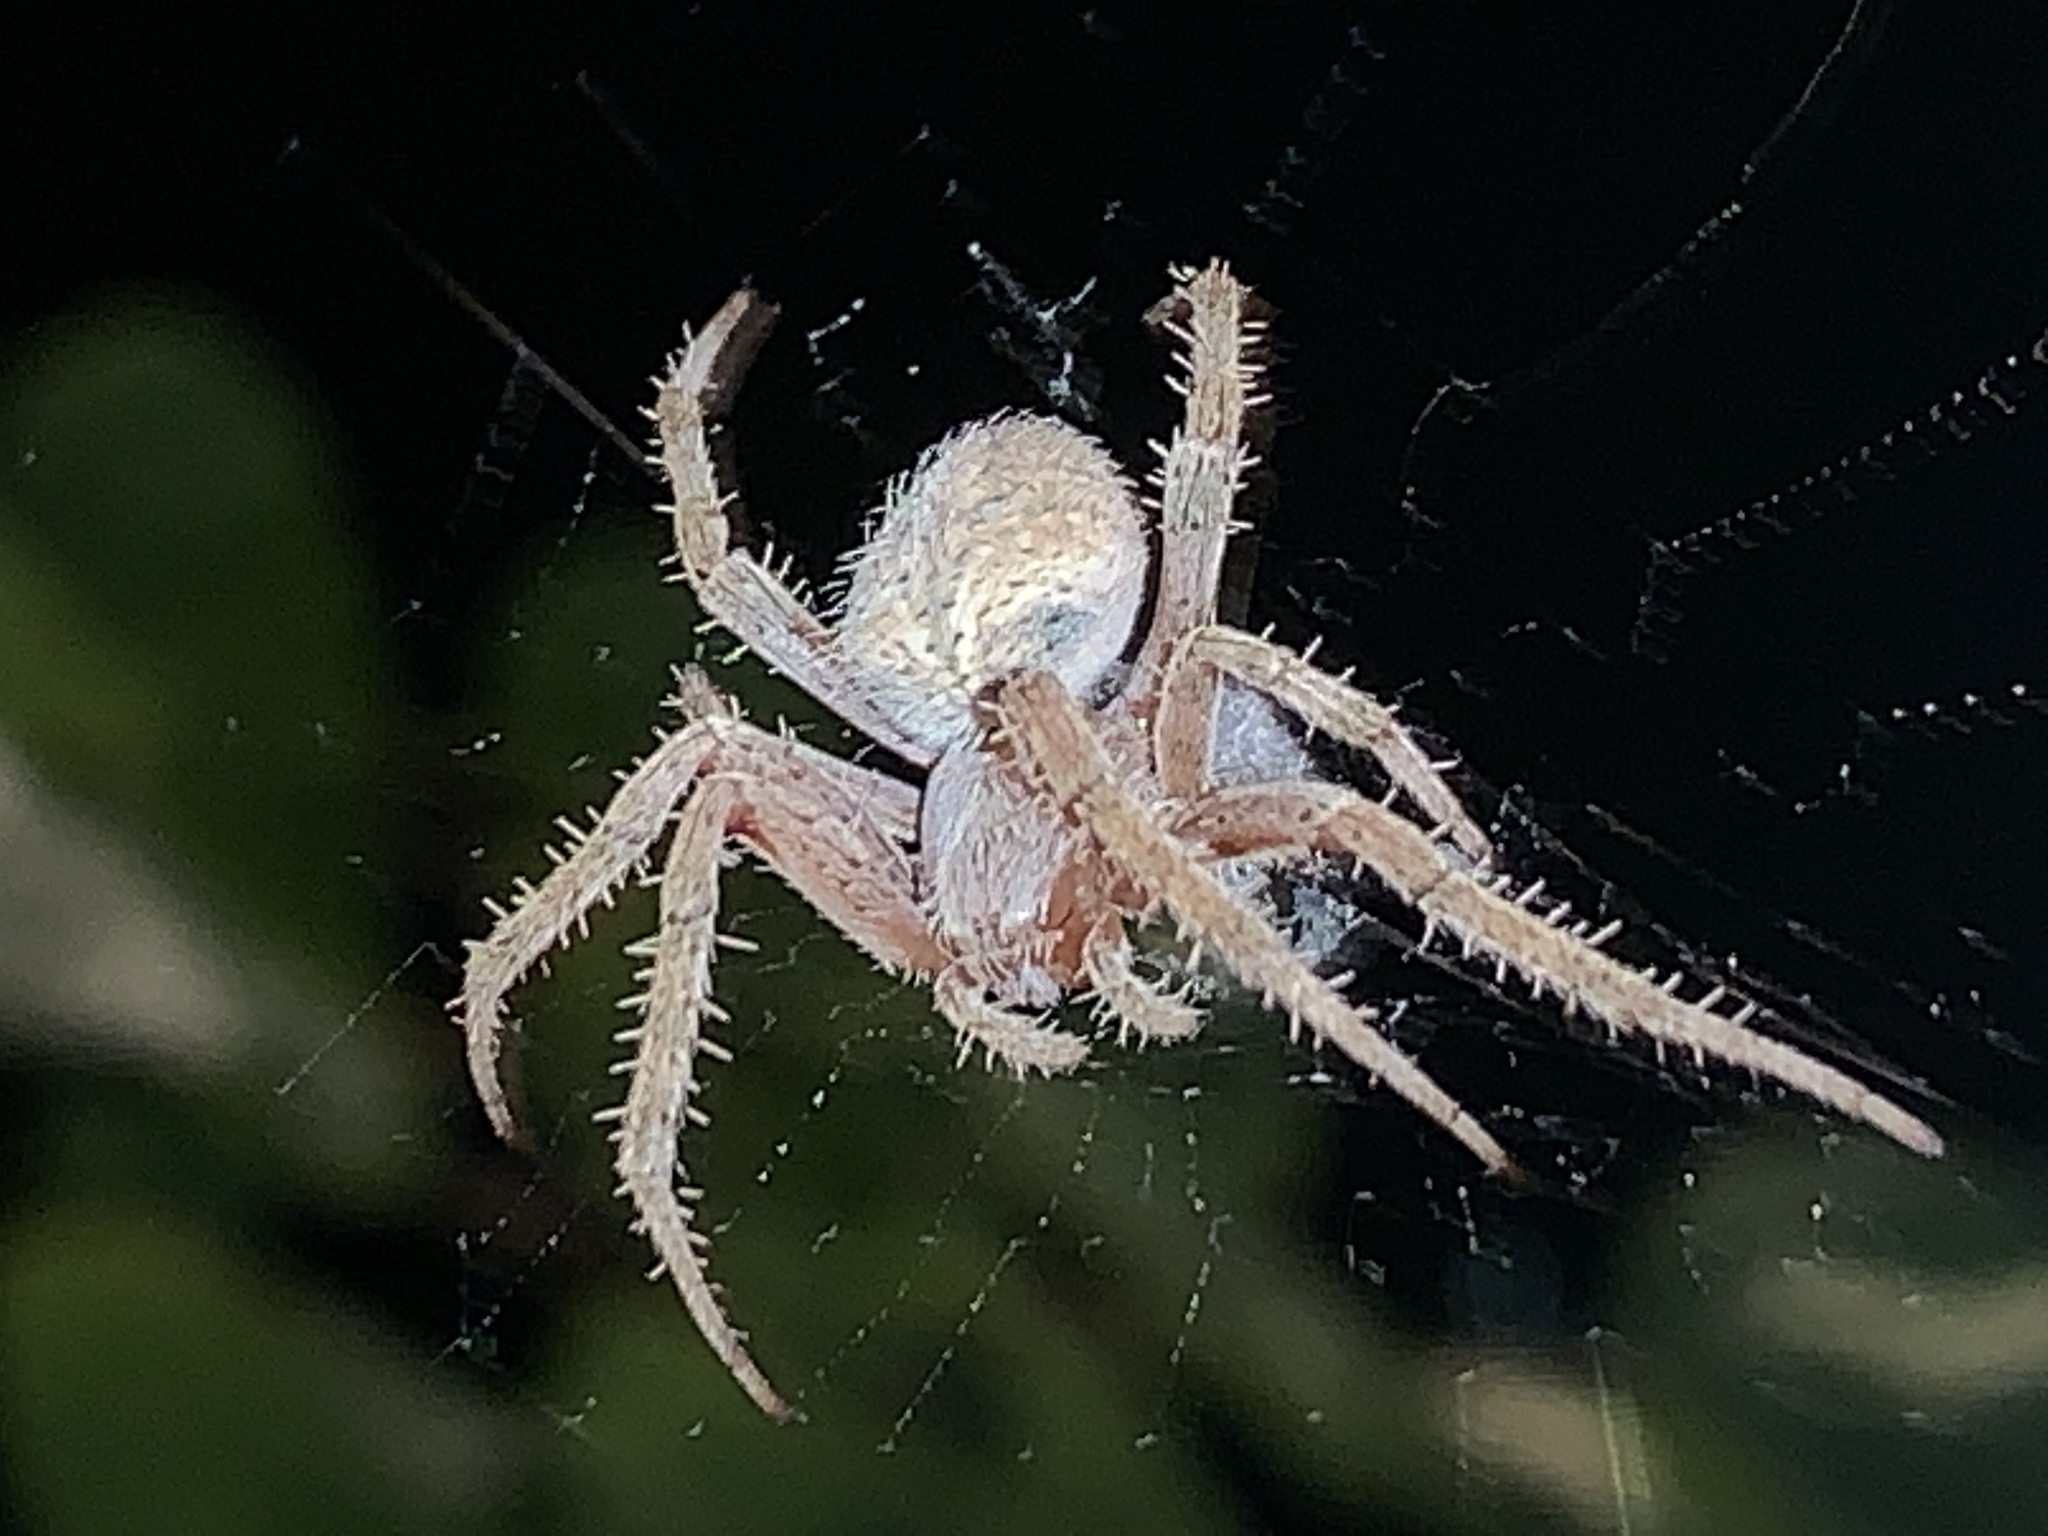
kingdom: Animalia
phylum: Arthropoda
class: Arachnida
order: Araneae
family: Araneidae
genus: Neoscona
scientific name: Neoscona crucifera
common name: Spotted orbweaver
